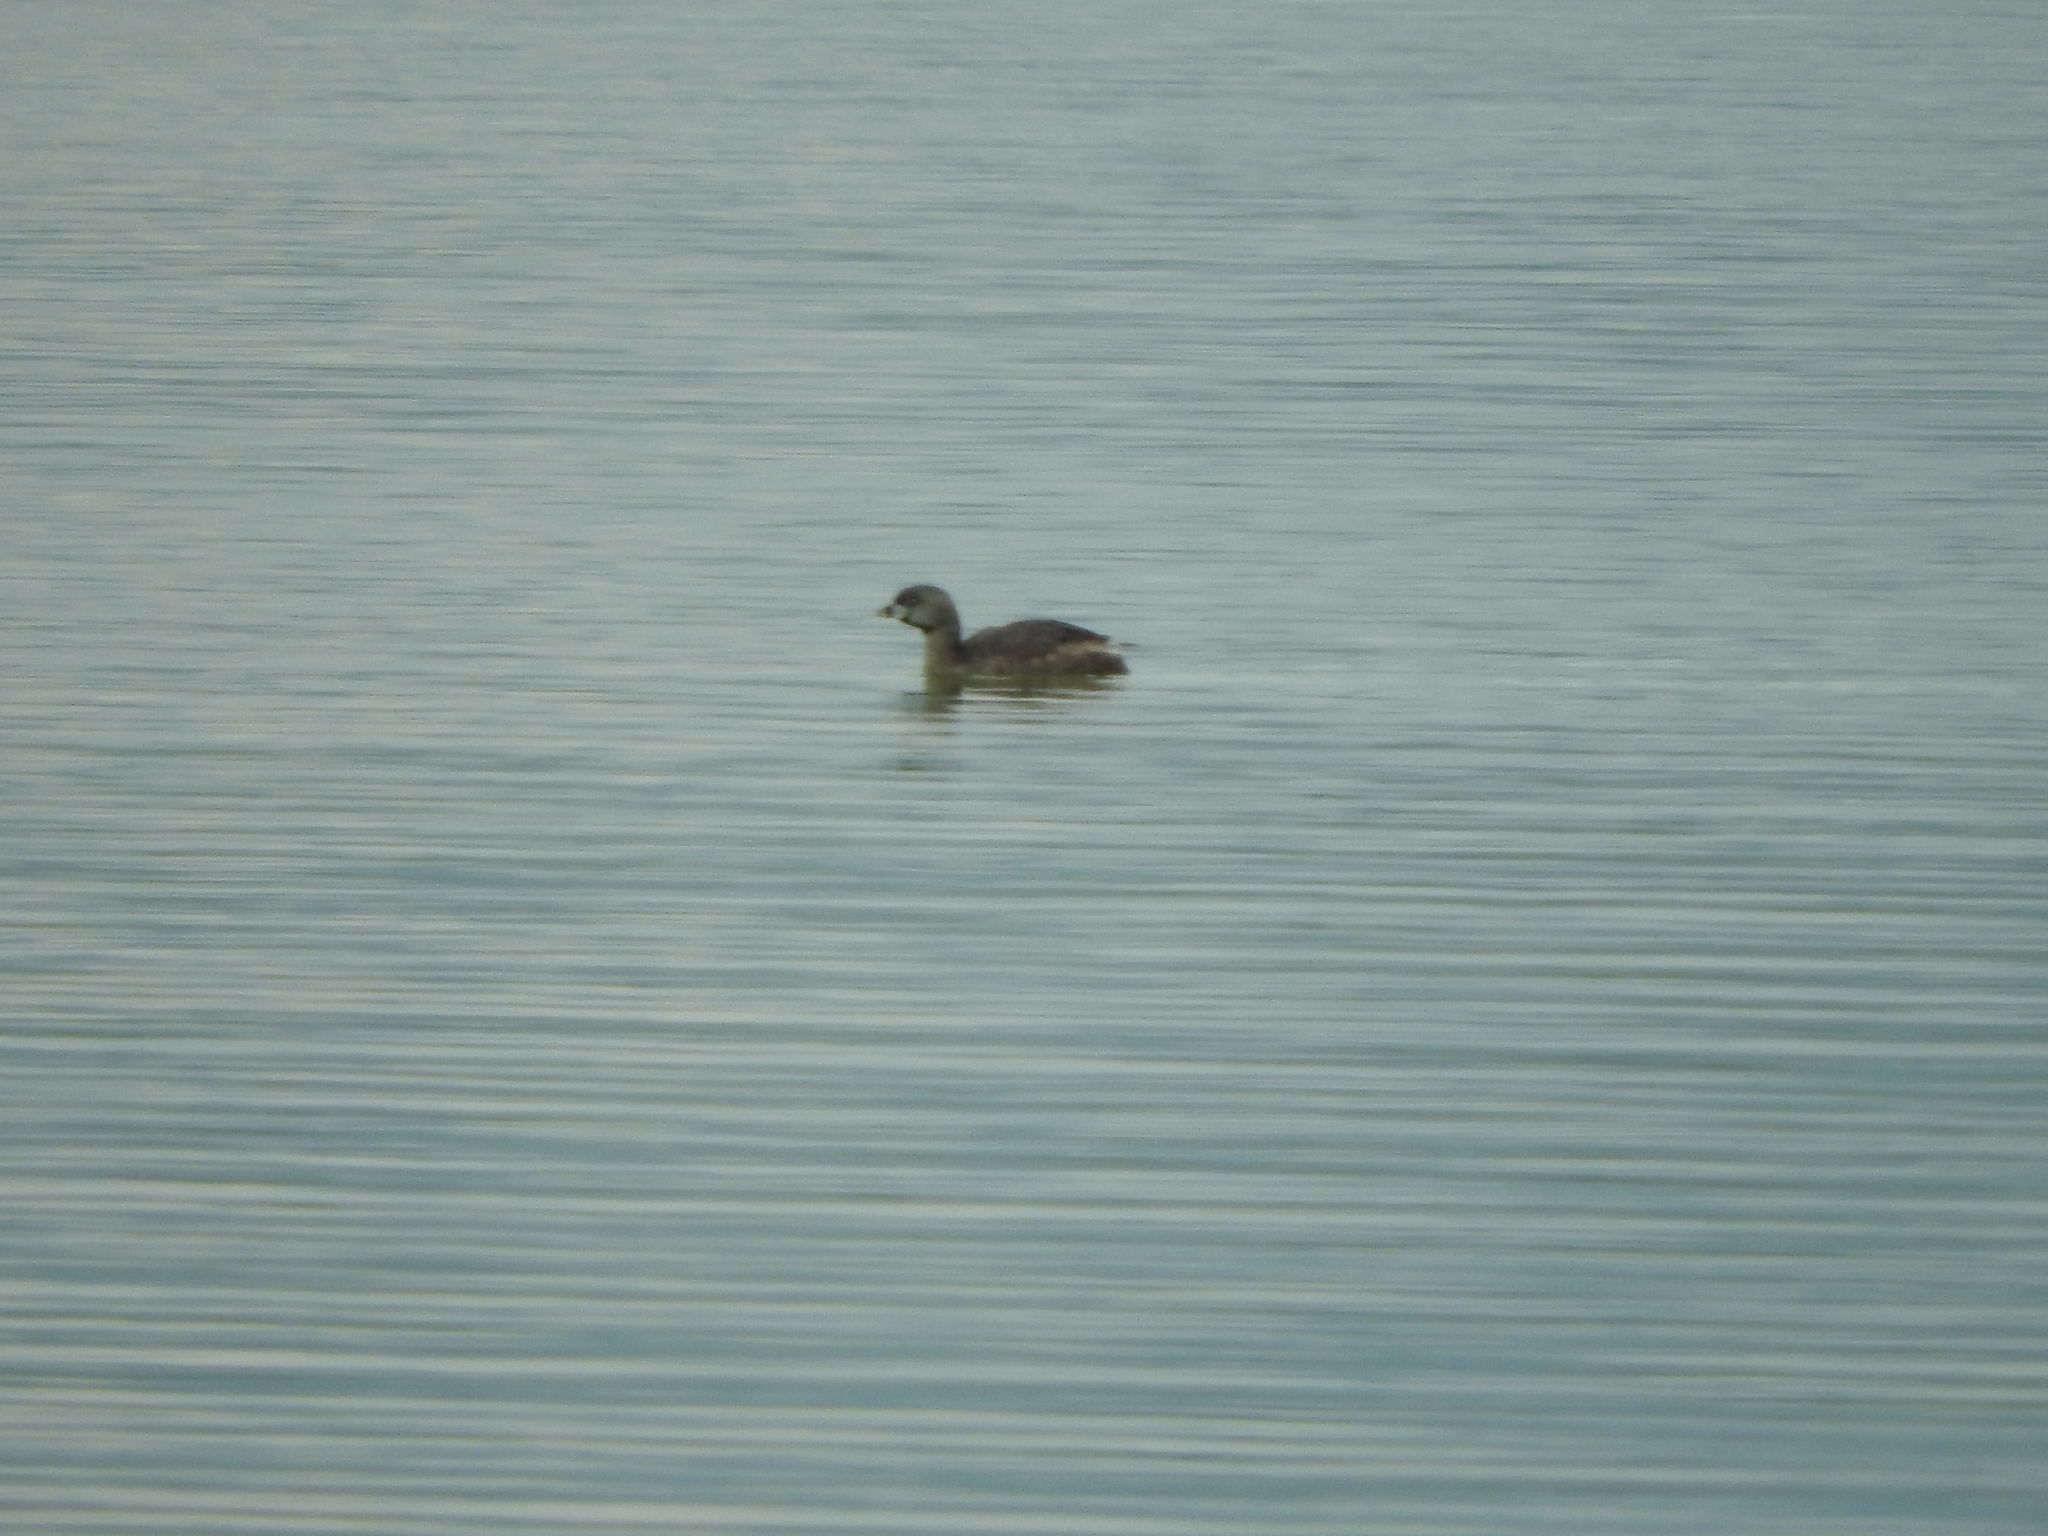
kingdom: Animalia
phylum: Chordata
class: Aves
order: Podicipediformes
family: Podicipedidae
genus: Podilymbus
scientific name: Podilymbus podiceps
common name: Pied-billed grebe
